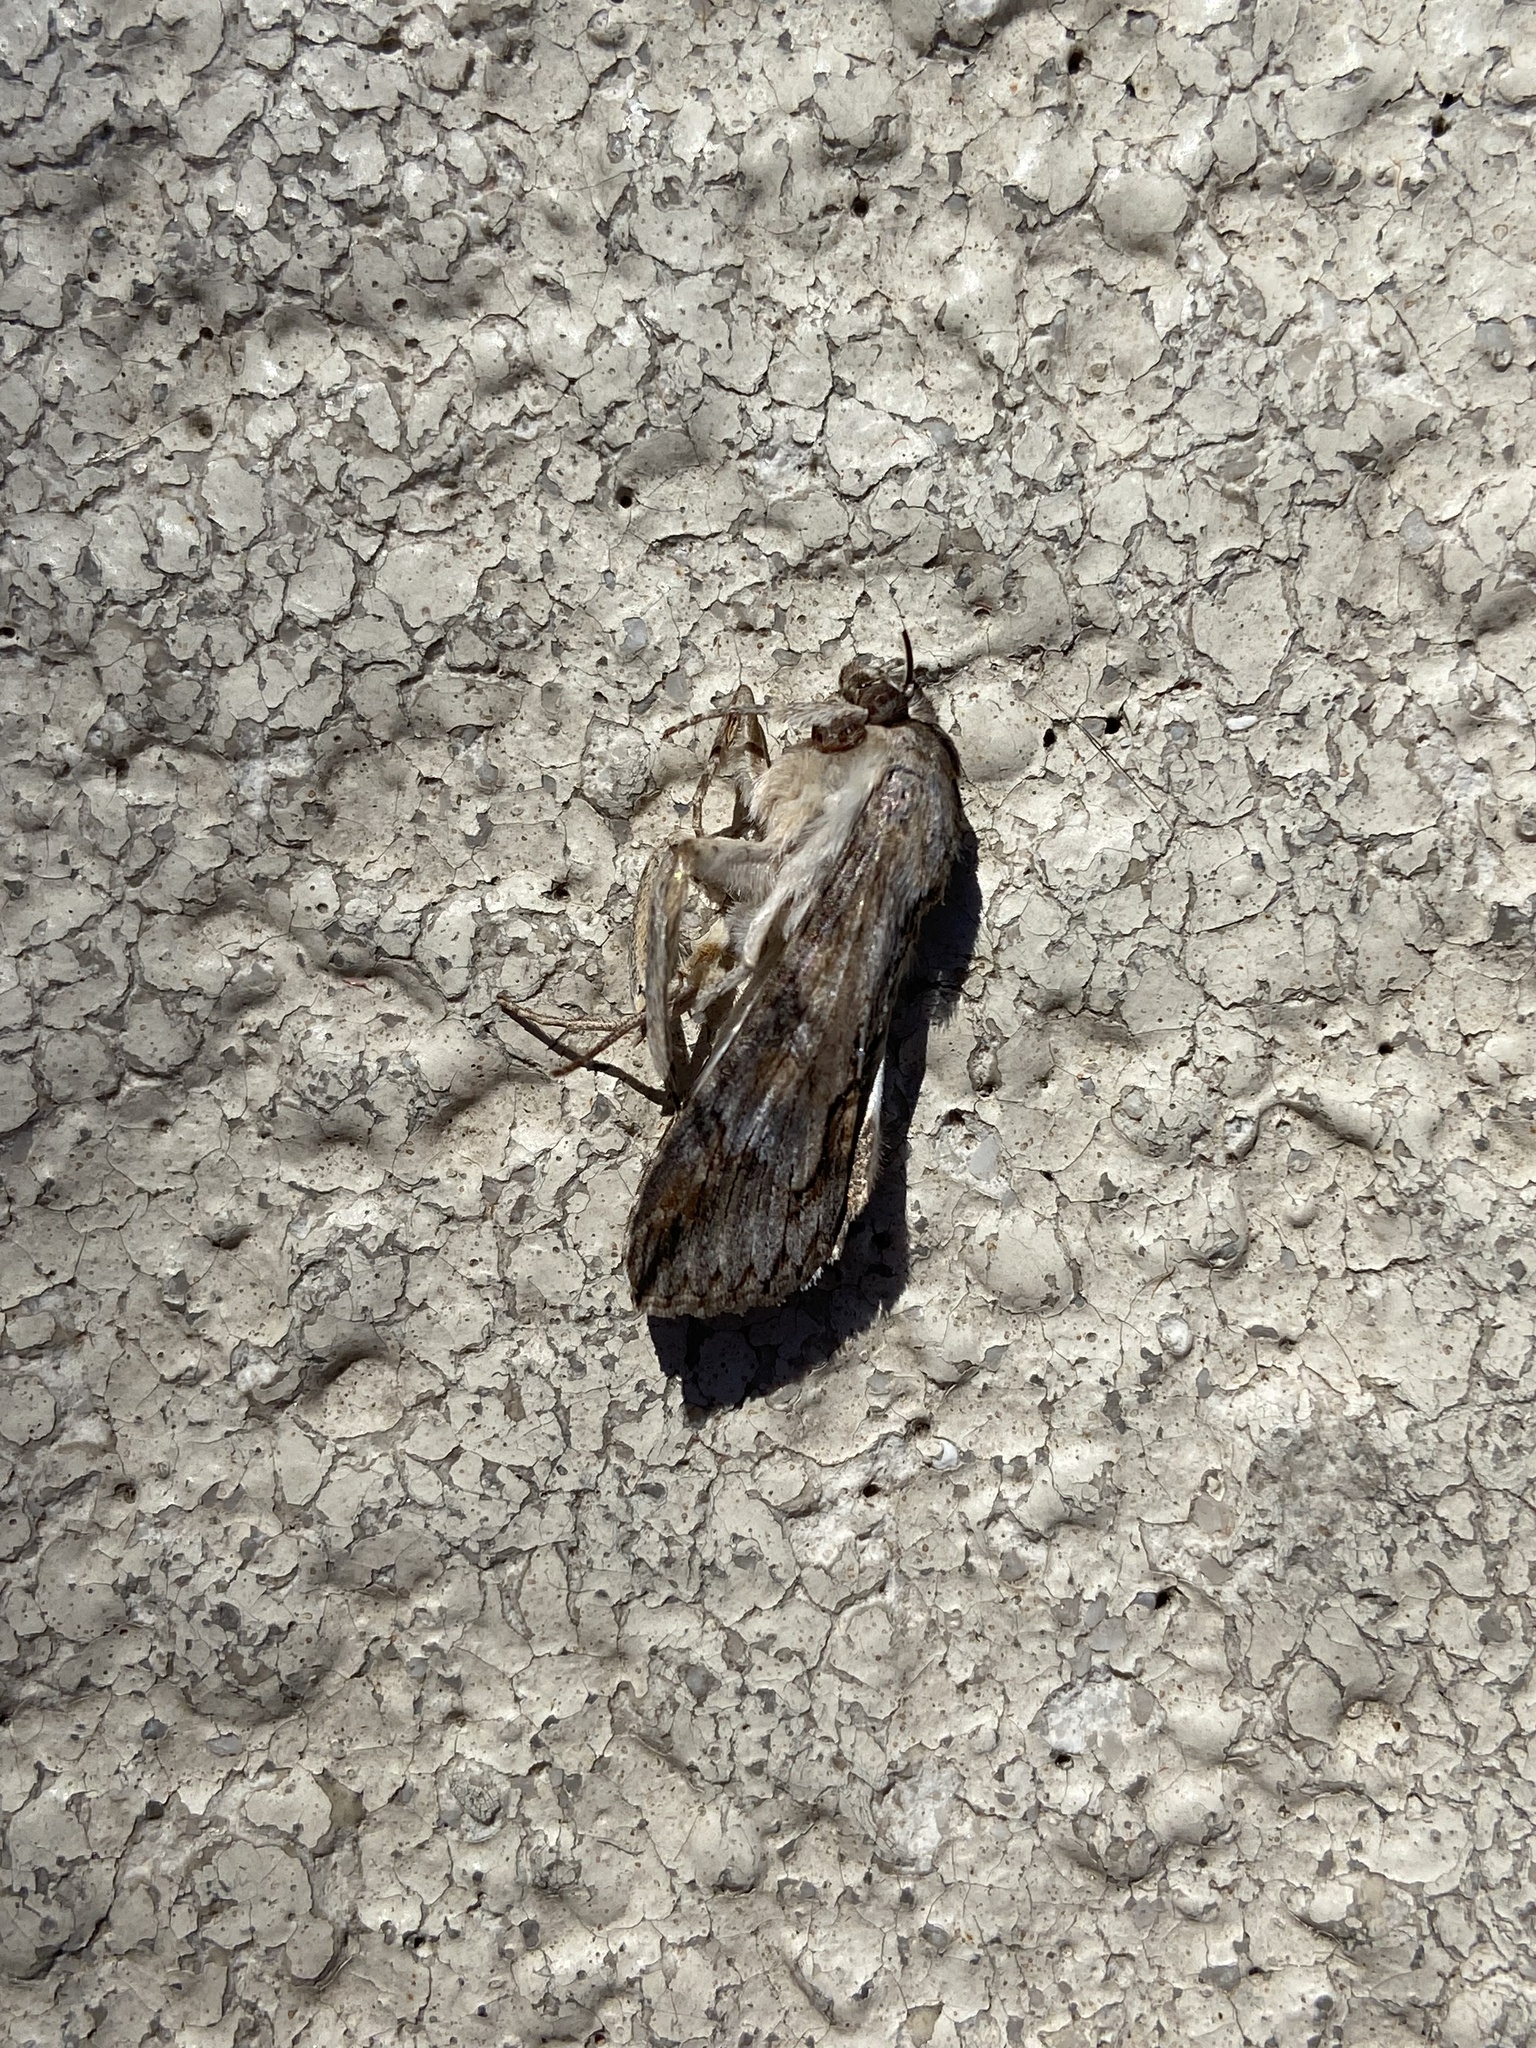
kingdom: Animalia
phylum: Arthropoda
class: Insecta
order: Lepidoptera
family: Erebidae
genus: Melipotis
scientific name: Melipotis acontioides
